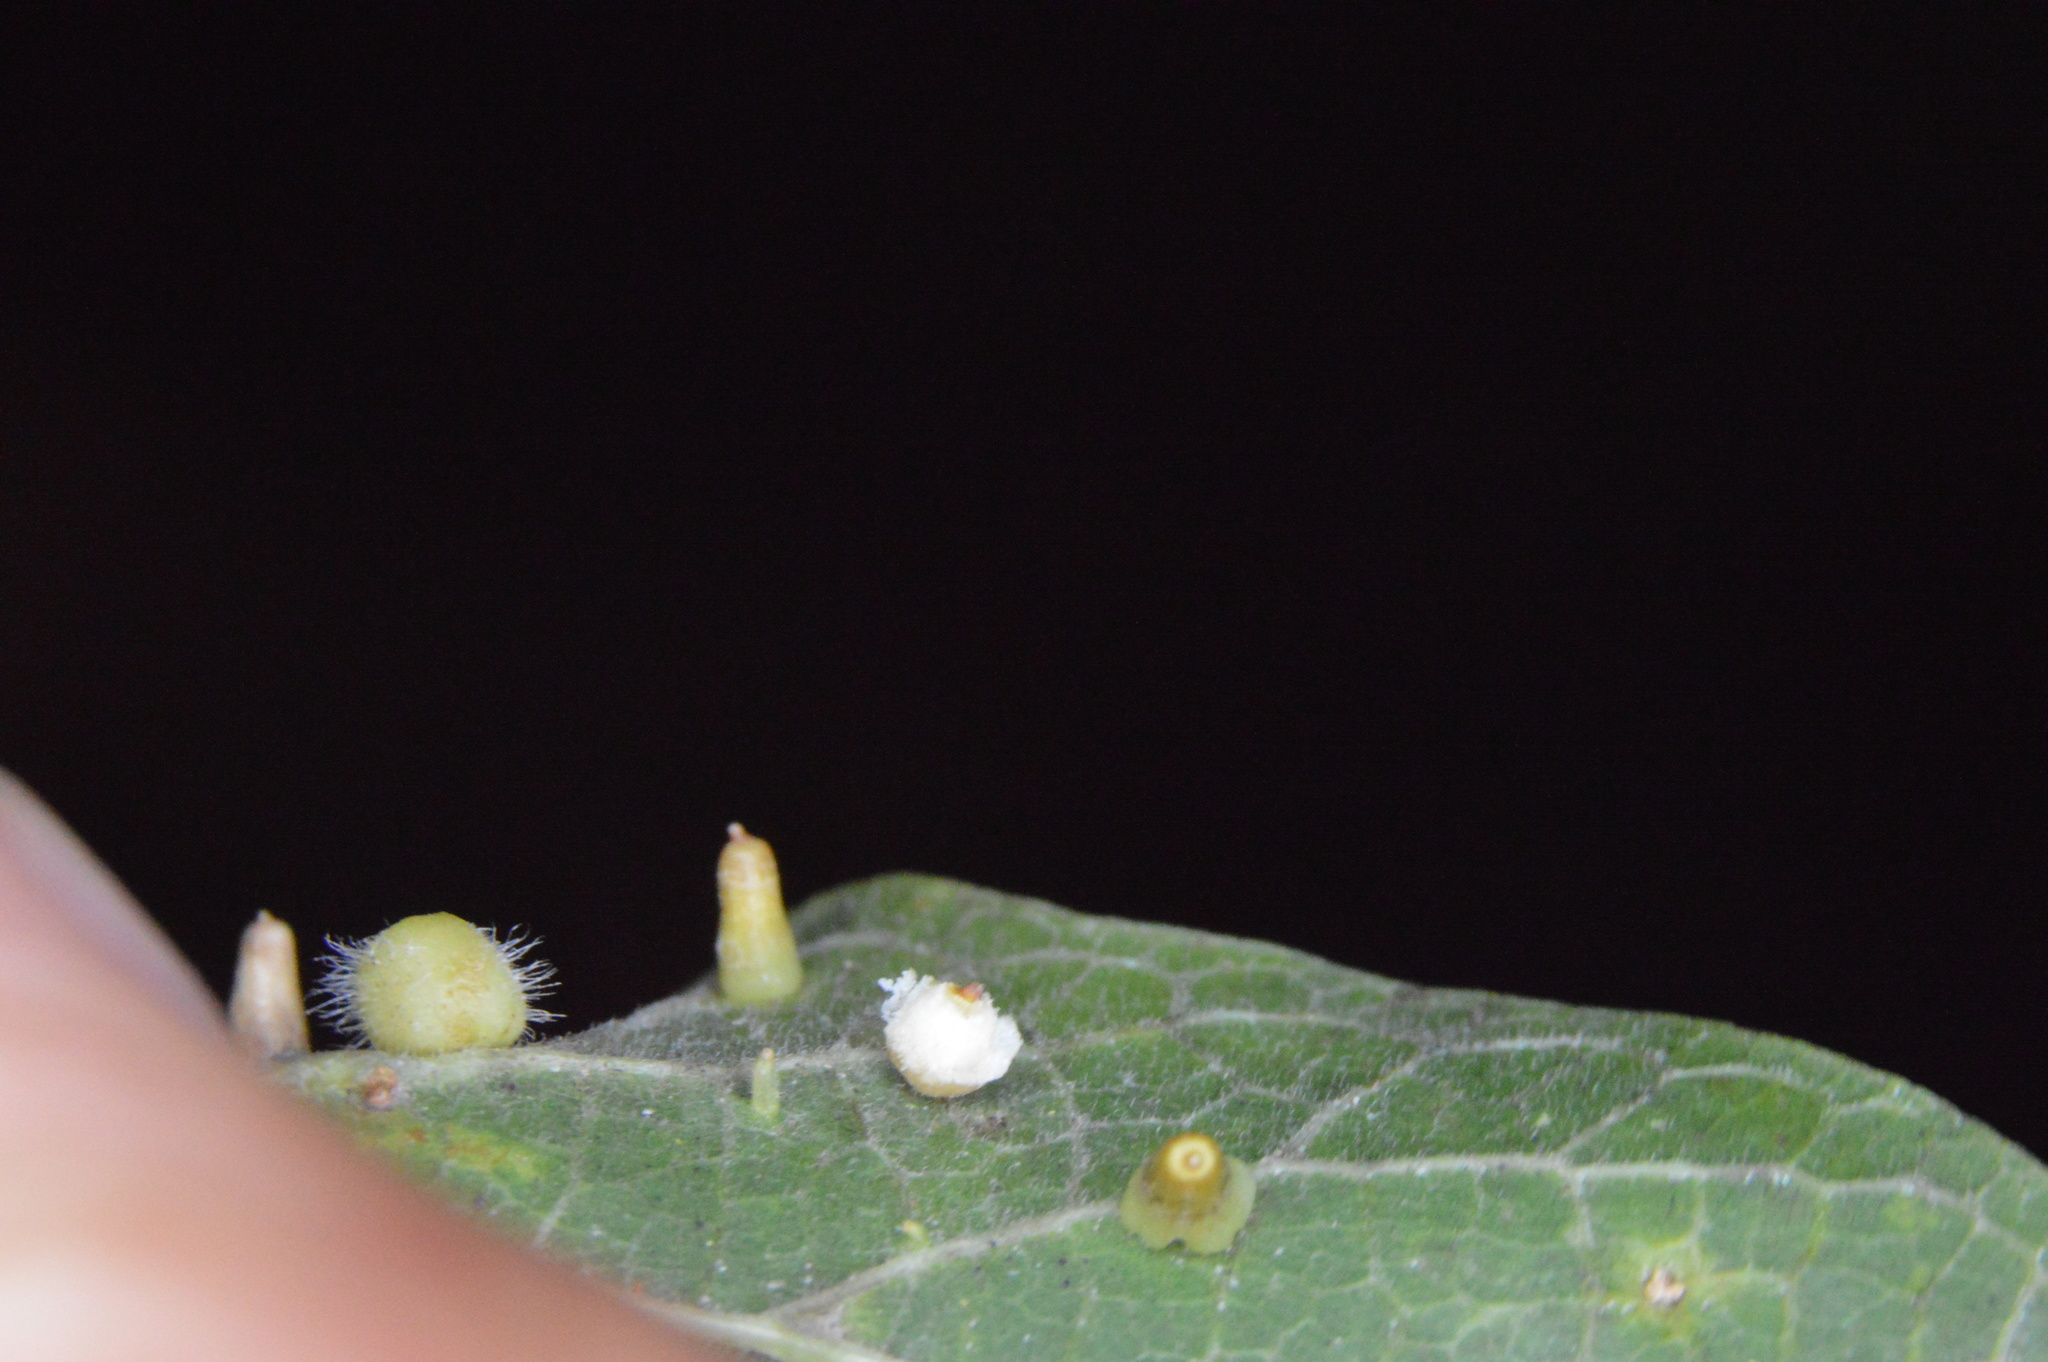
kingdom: Animalia
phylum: Arthropoda
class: Insecta
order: Diptera
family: Cecidomyiidae
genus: Celticecis
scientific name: Celticecis globosa
